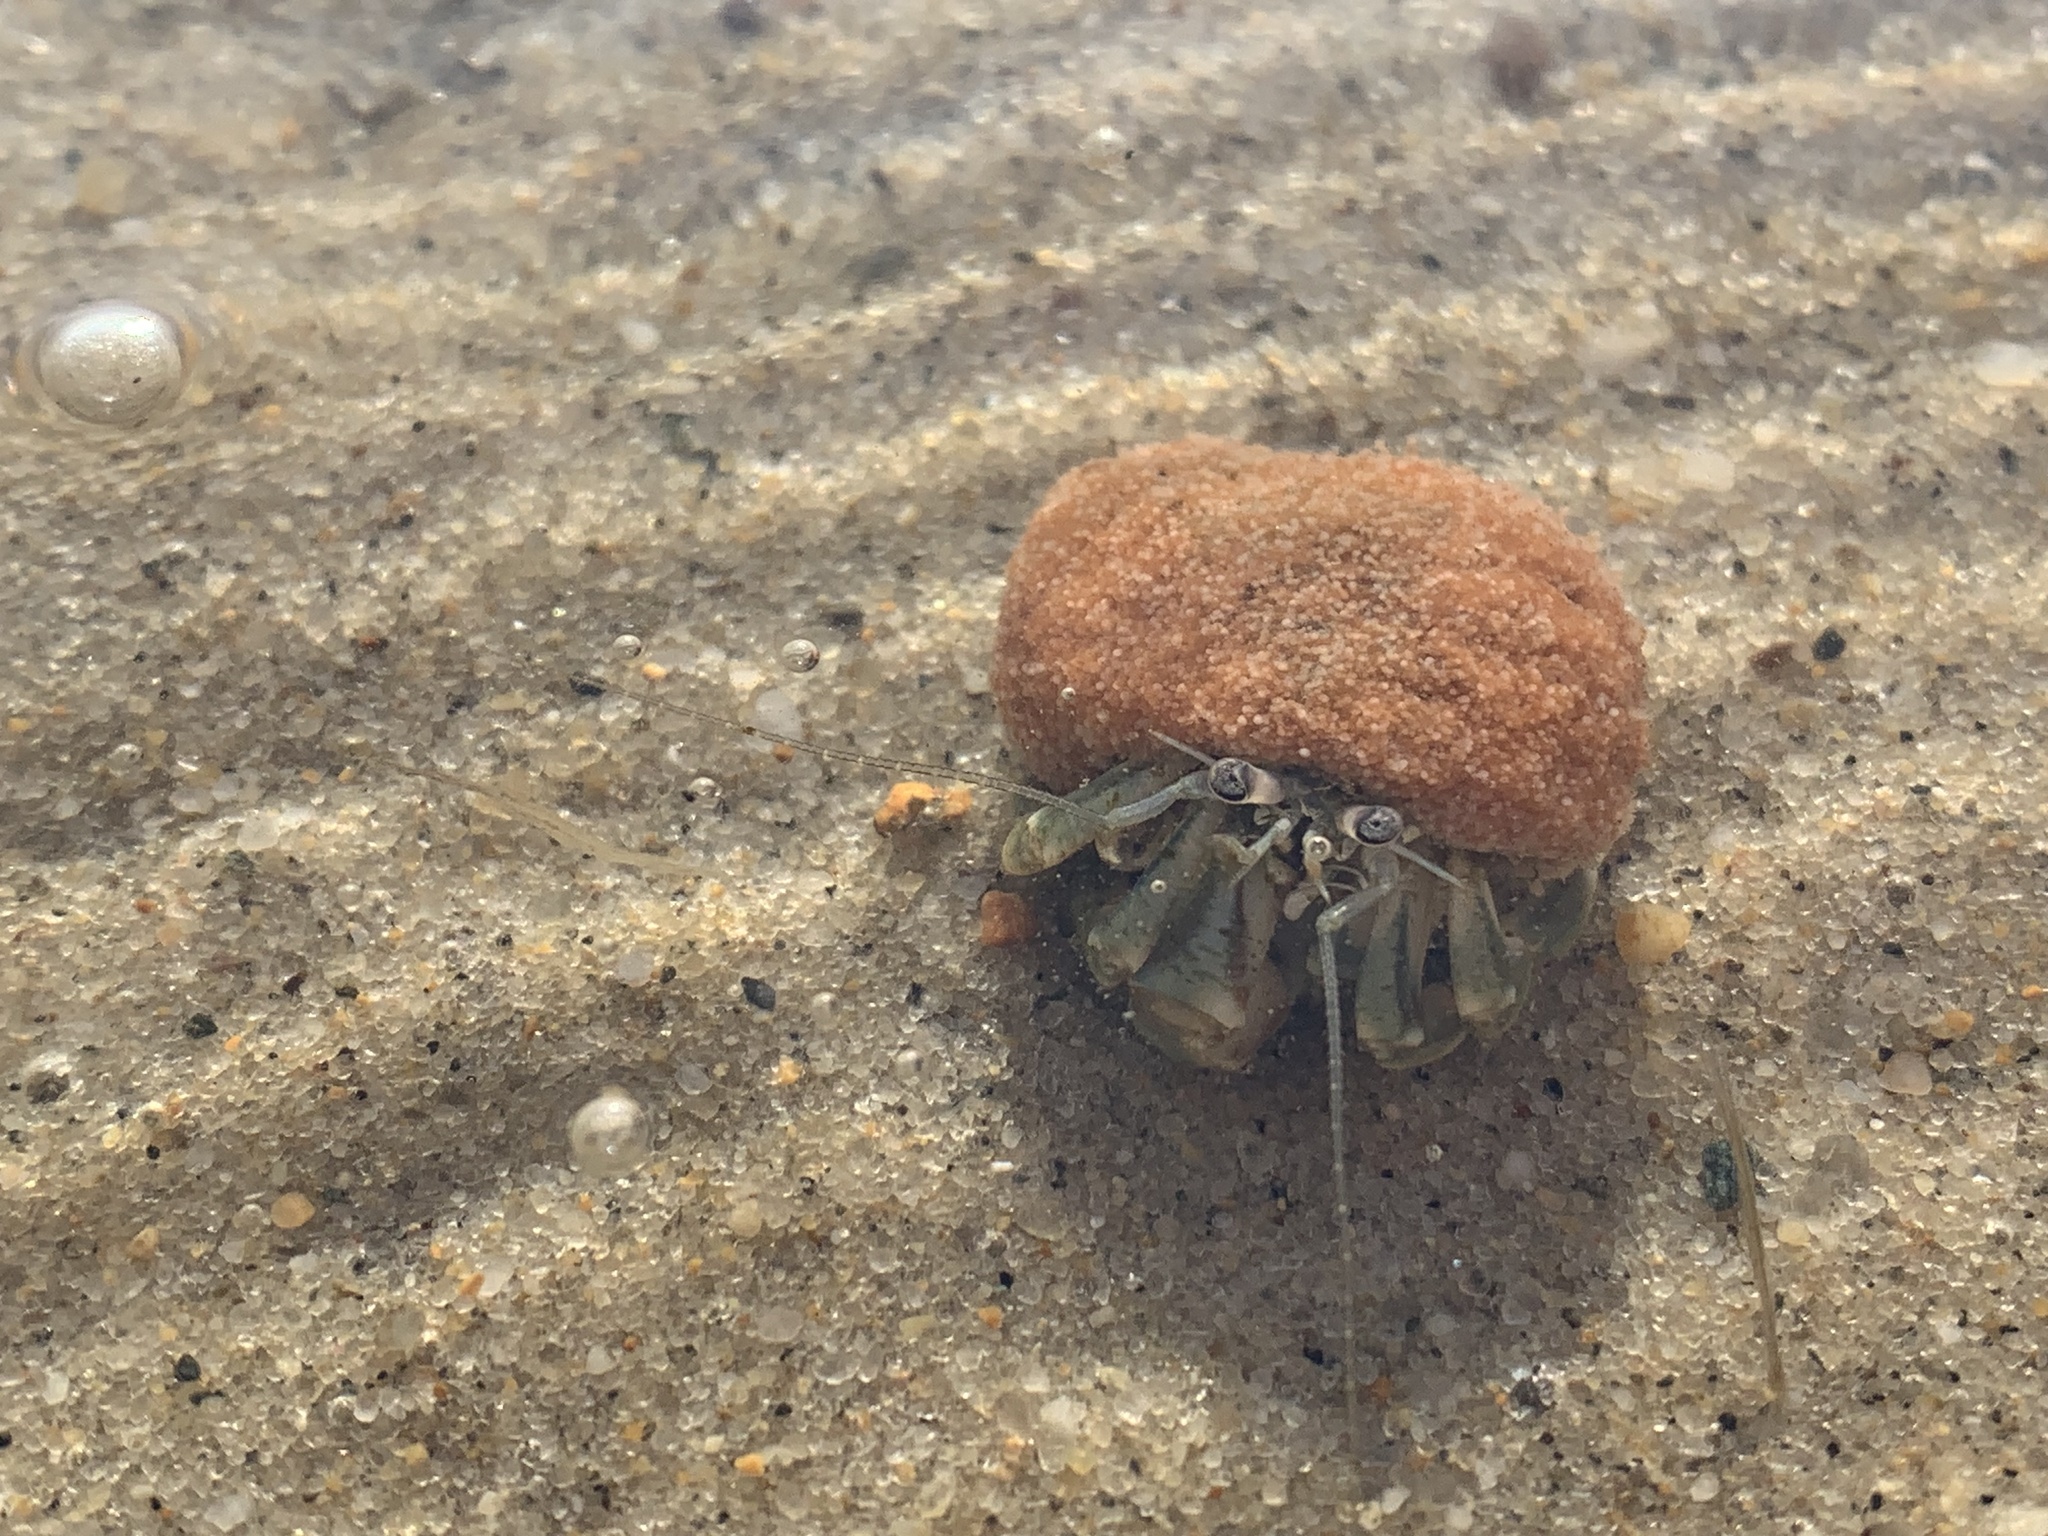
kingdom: Animalia
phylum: Arthropoda
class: Malacostraca
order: Decapoda
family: Paguridae
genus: Pagurus
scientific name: Pagurus longicarpus
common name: Long-armed hermit crab
